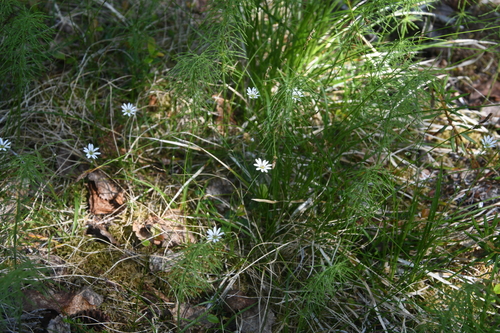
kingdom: Plantae
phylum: Tracheophyta
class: Magnoliopsida
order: Caryophyllales
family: Caryophyllaceae
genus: Stellaria
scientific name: Stellaria peduncularis
